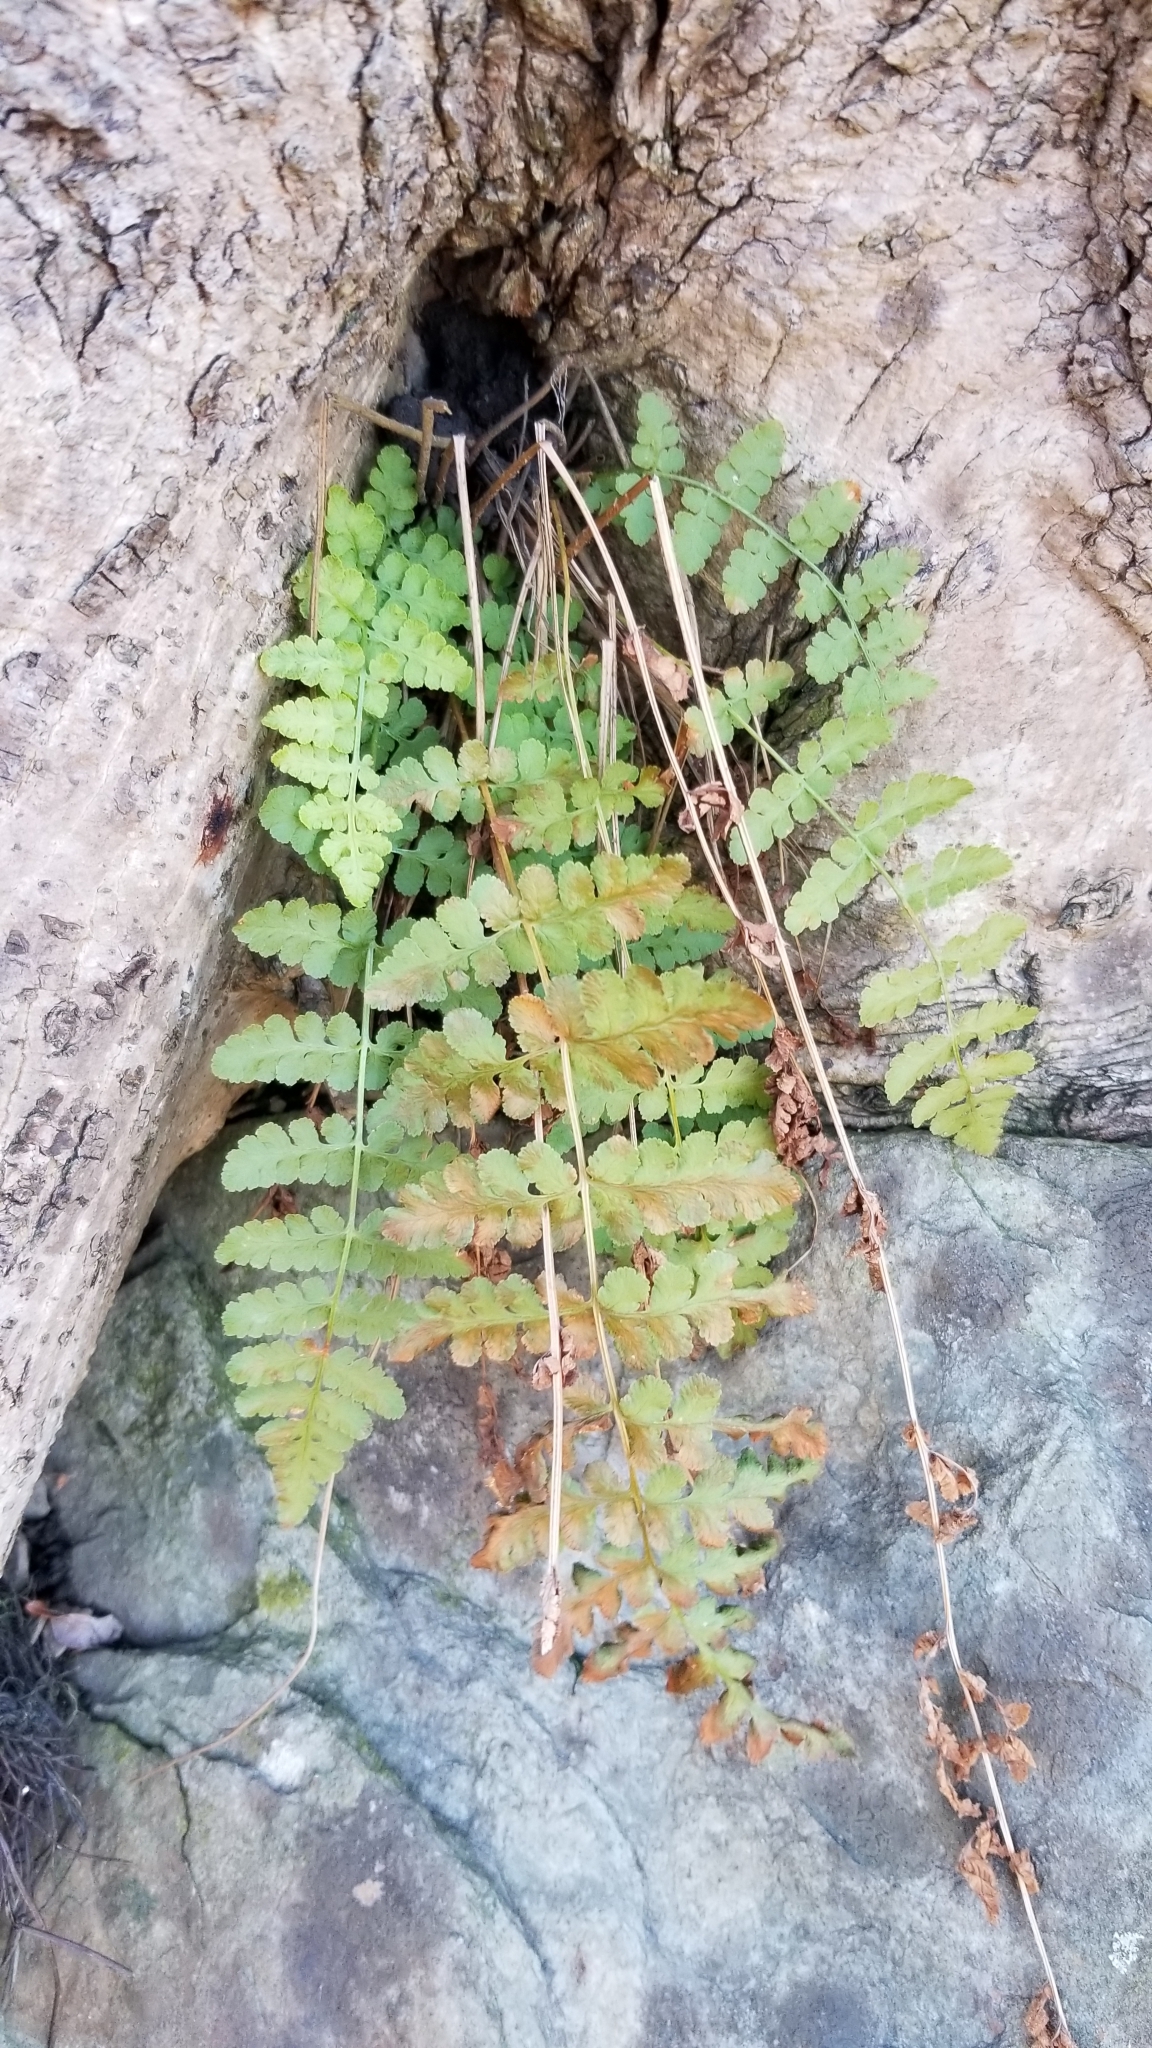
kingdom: Plantae
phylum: Tracheophyta
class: Polypodiopsida
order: Polypodiales
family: Woodsiaceae
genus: Physematium
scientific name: Physematium obtusum
